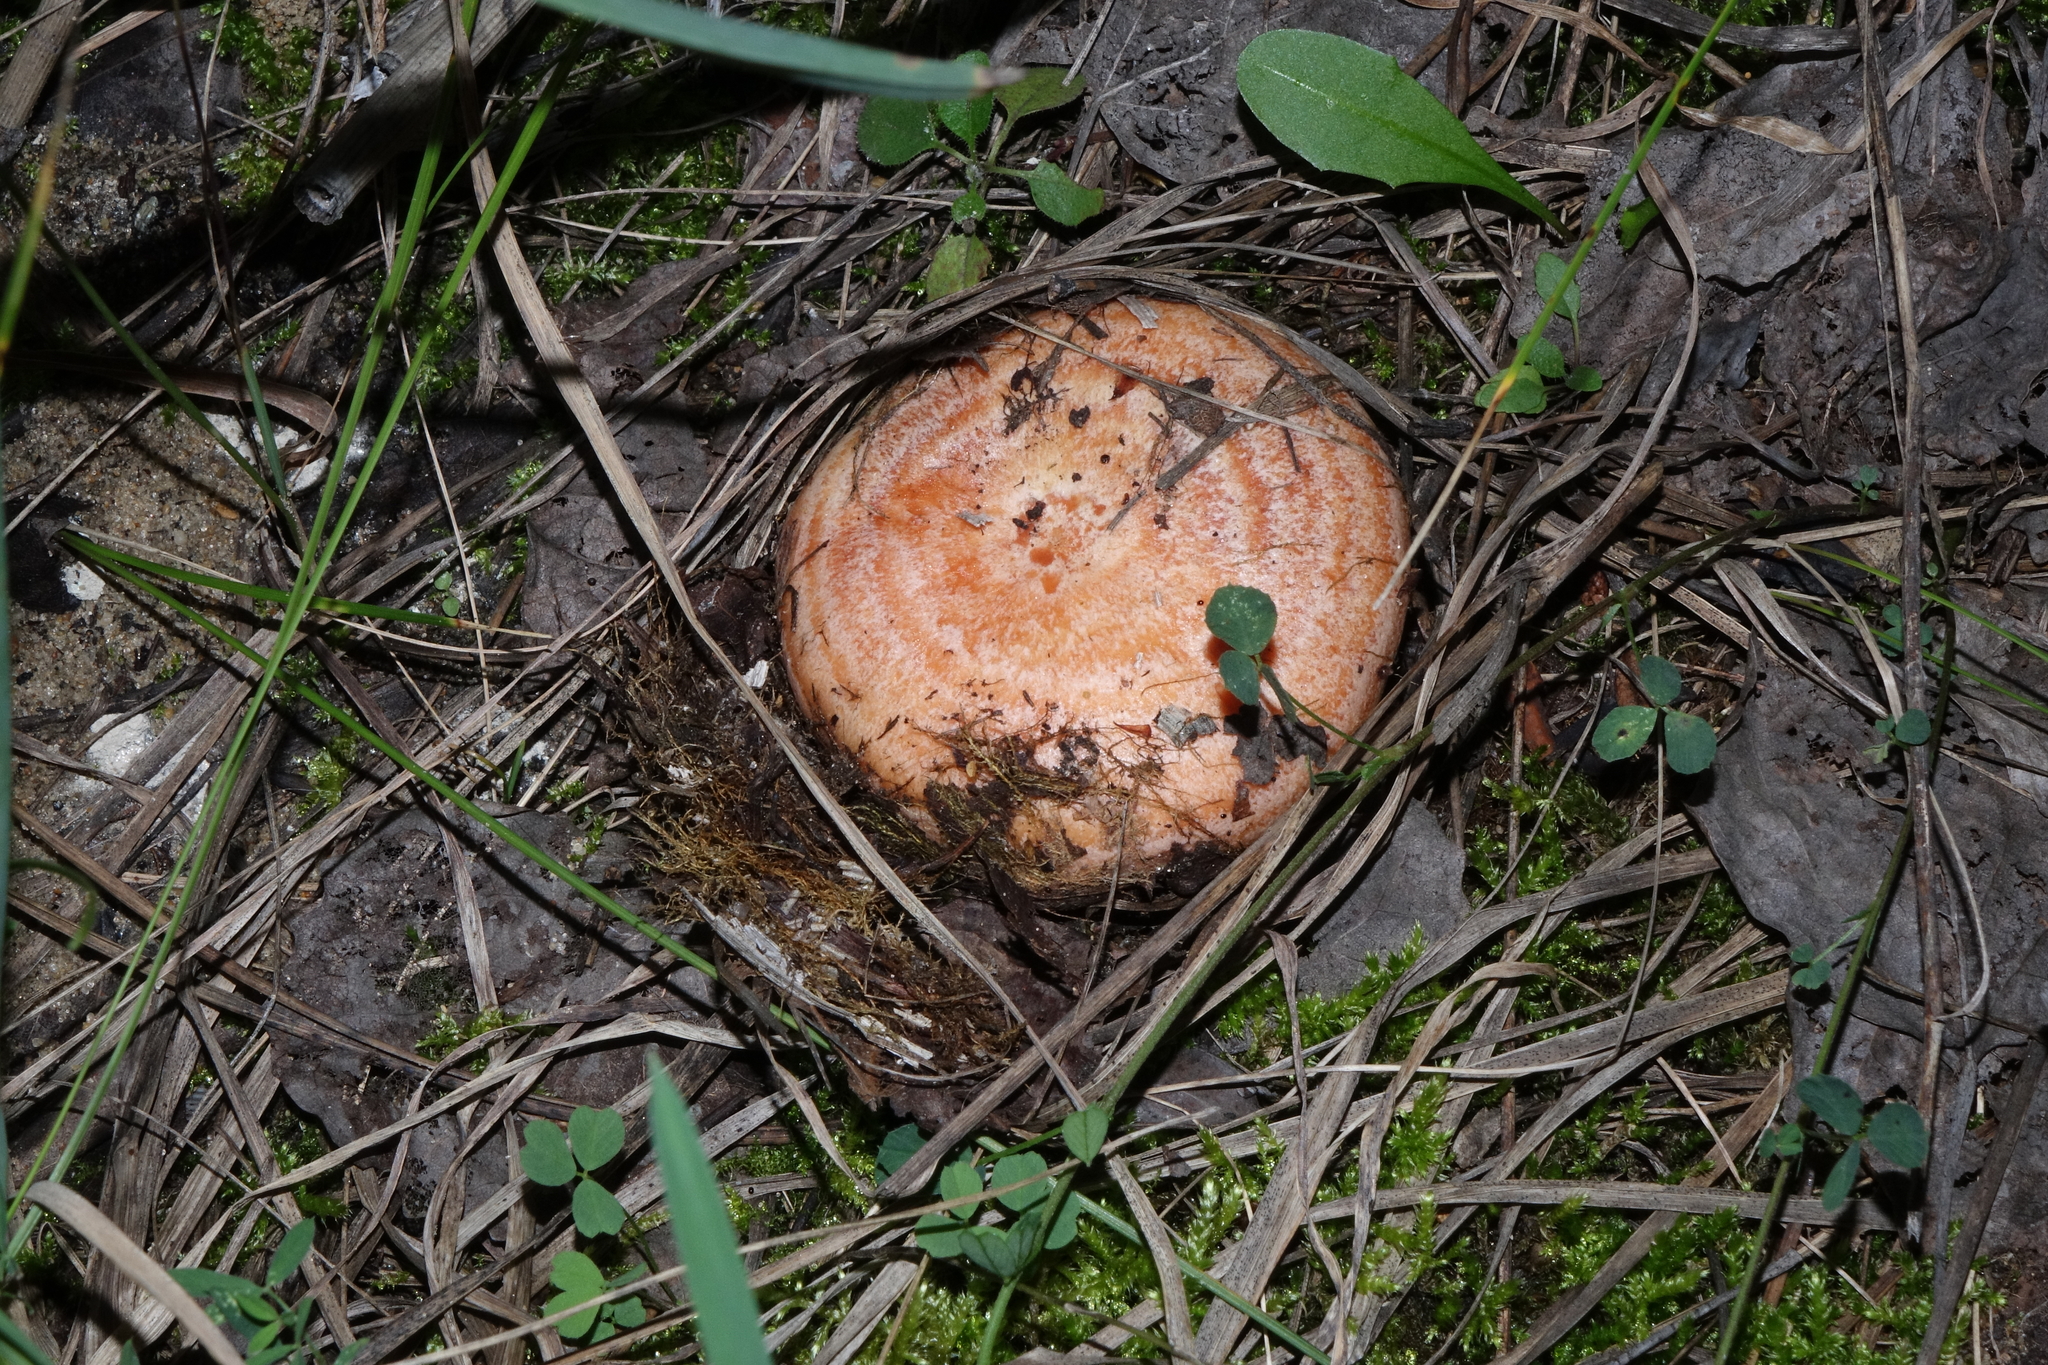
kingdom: Fungi
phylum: Basidiomycota
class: Agaricomycetes
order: Russulales
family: Russulaceae
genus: Lactarius
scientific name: Lactarius deliciosus
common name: Saffron milk-cap
